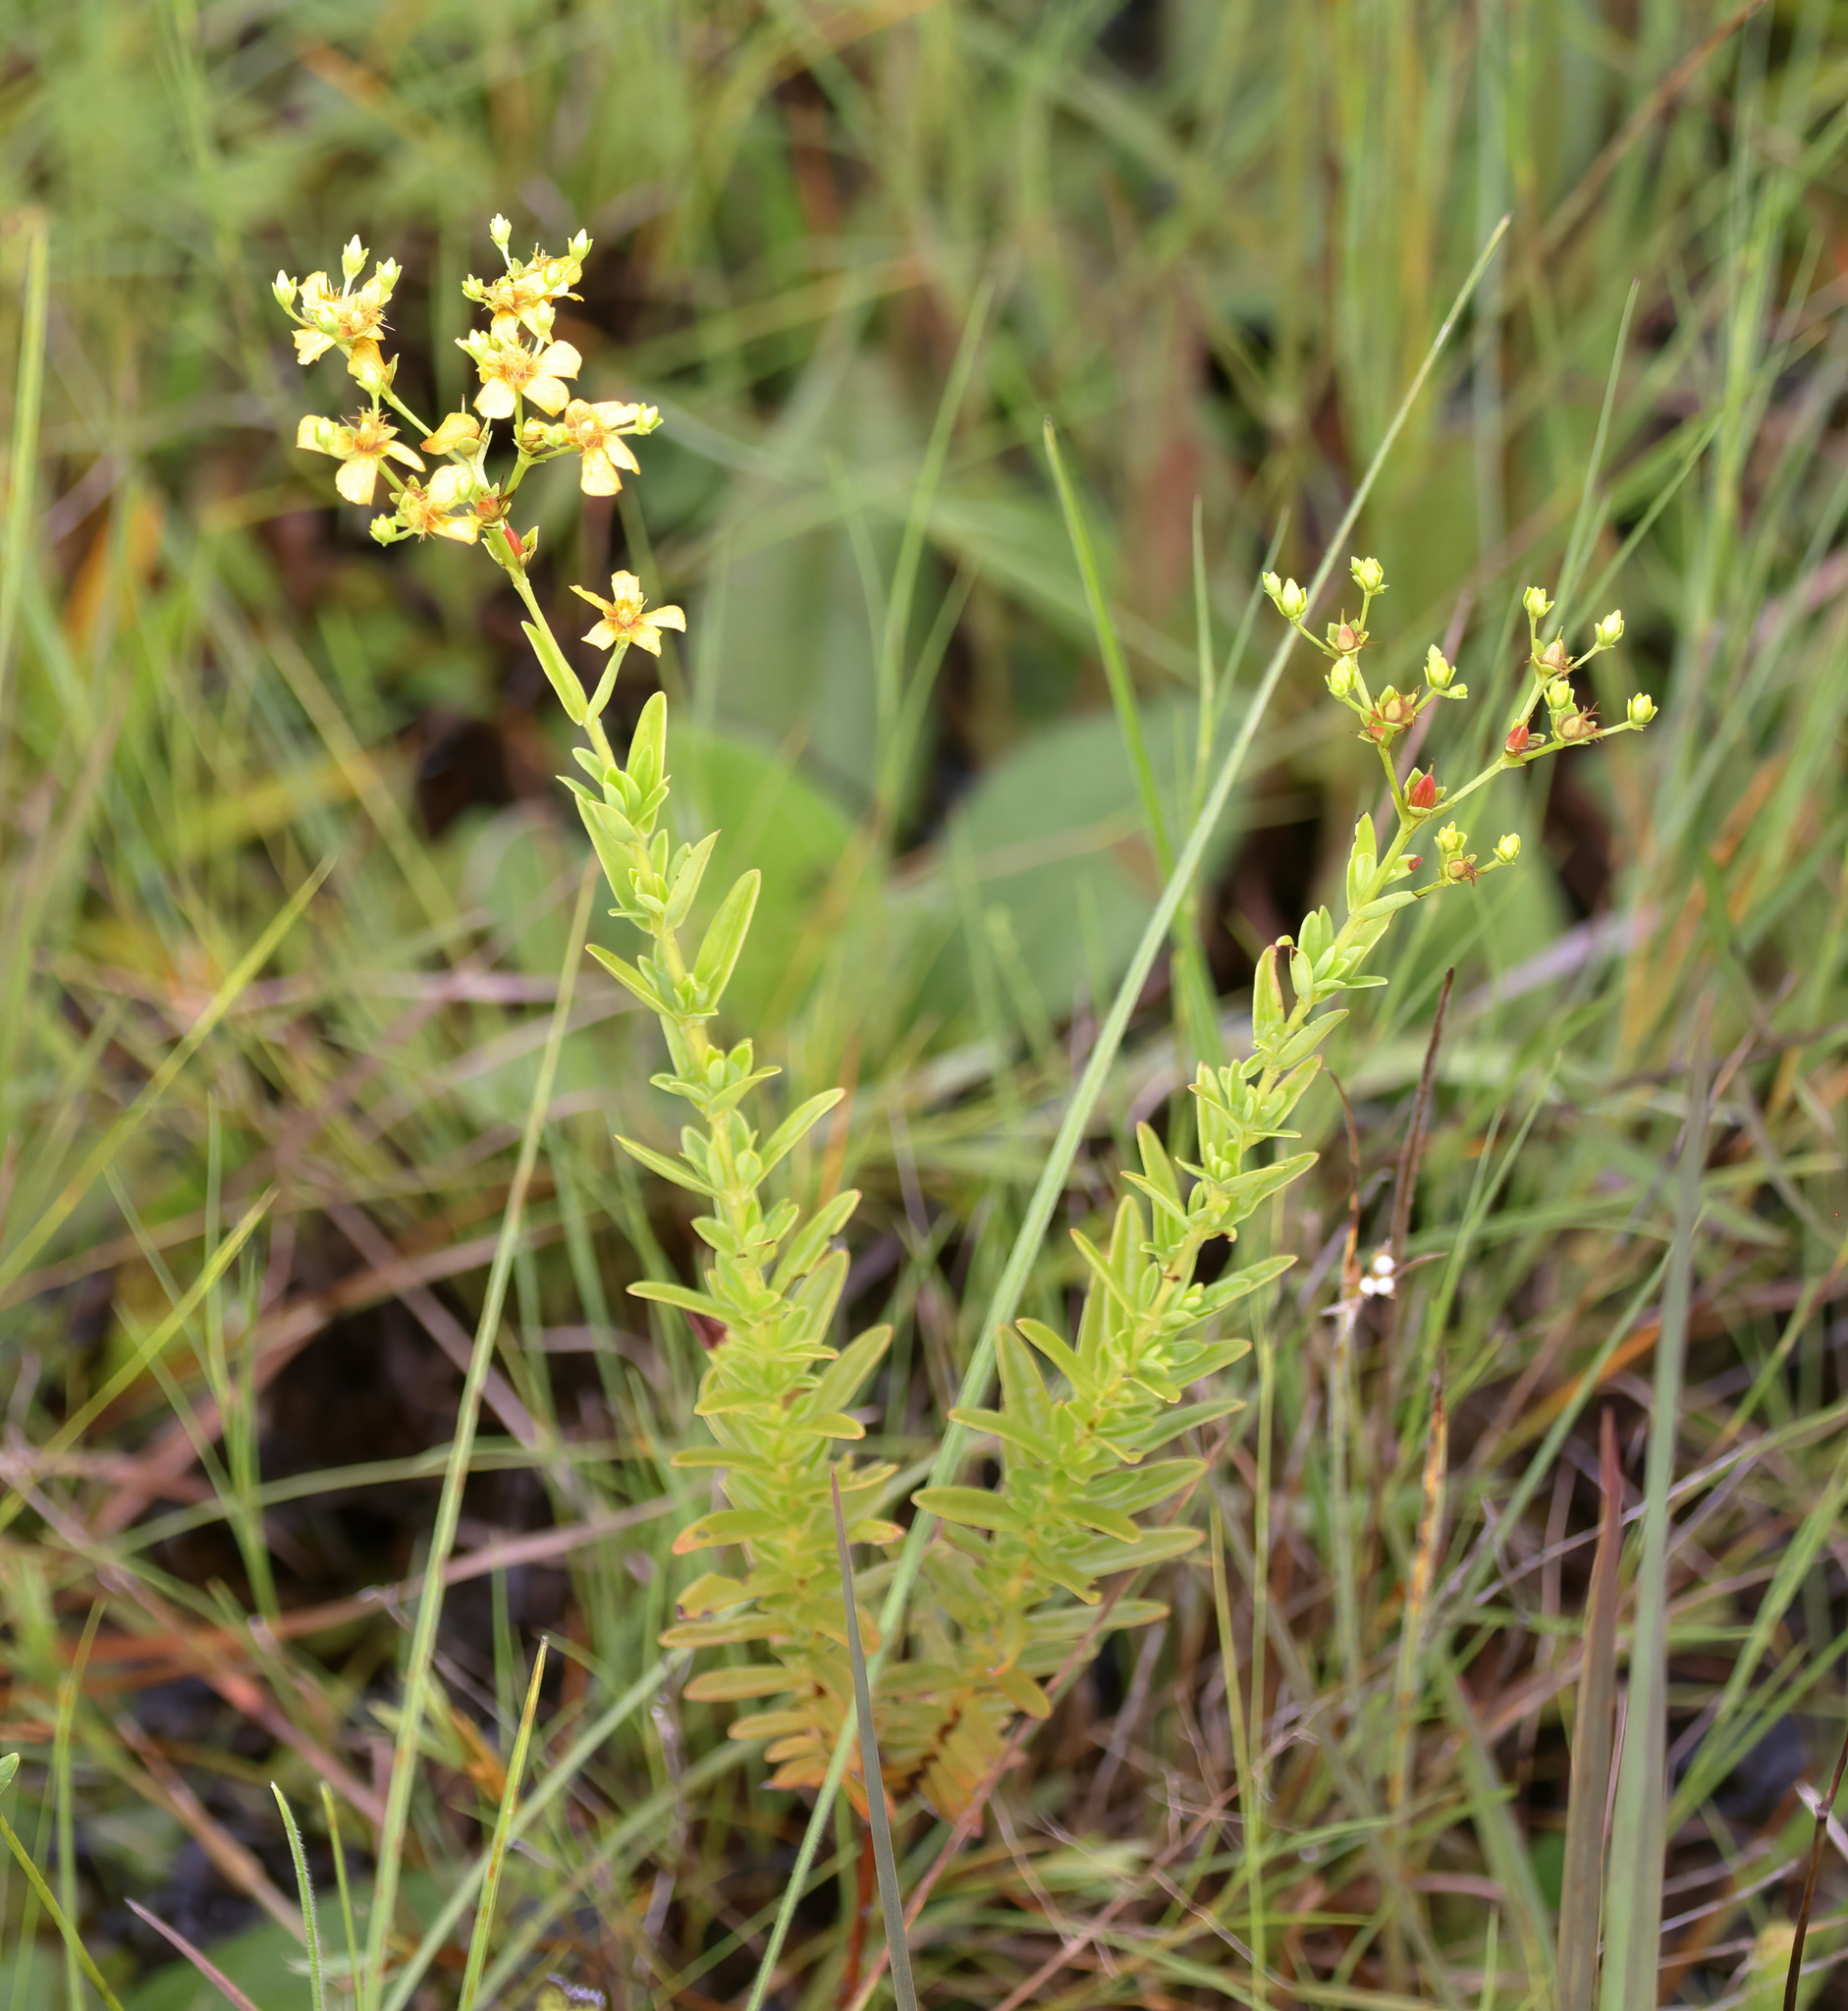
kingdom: Plantae
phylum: Tracheophyta
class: Magnoliopsida
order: Malpighiales
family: Hypericaceae
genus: Hypericum
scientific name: Hypericum cistifolium
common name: Round-pod st. john's-wort
